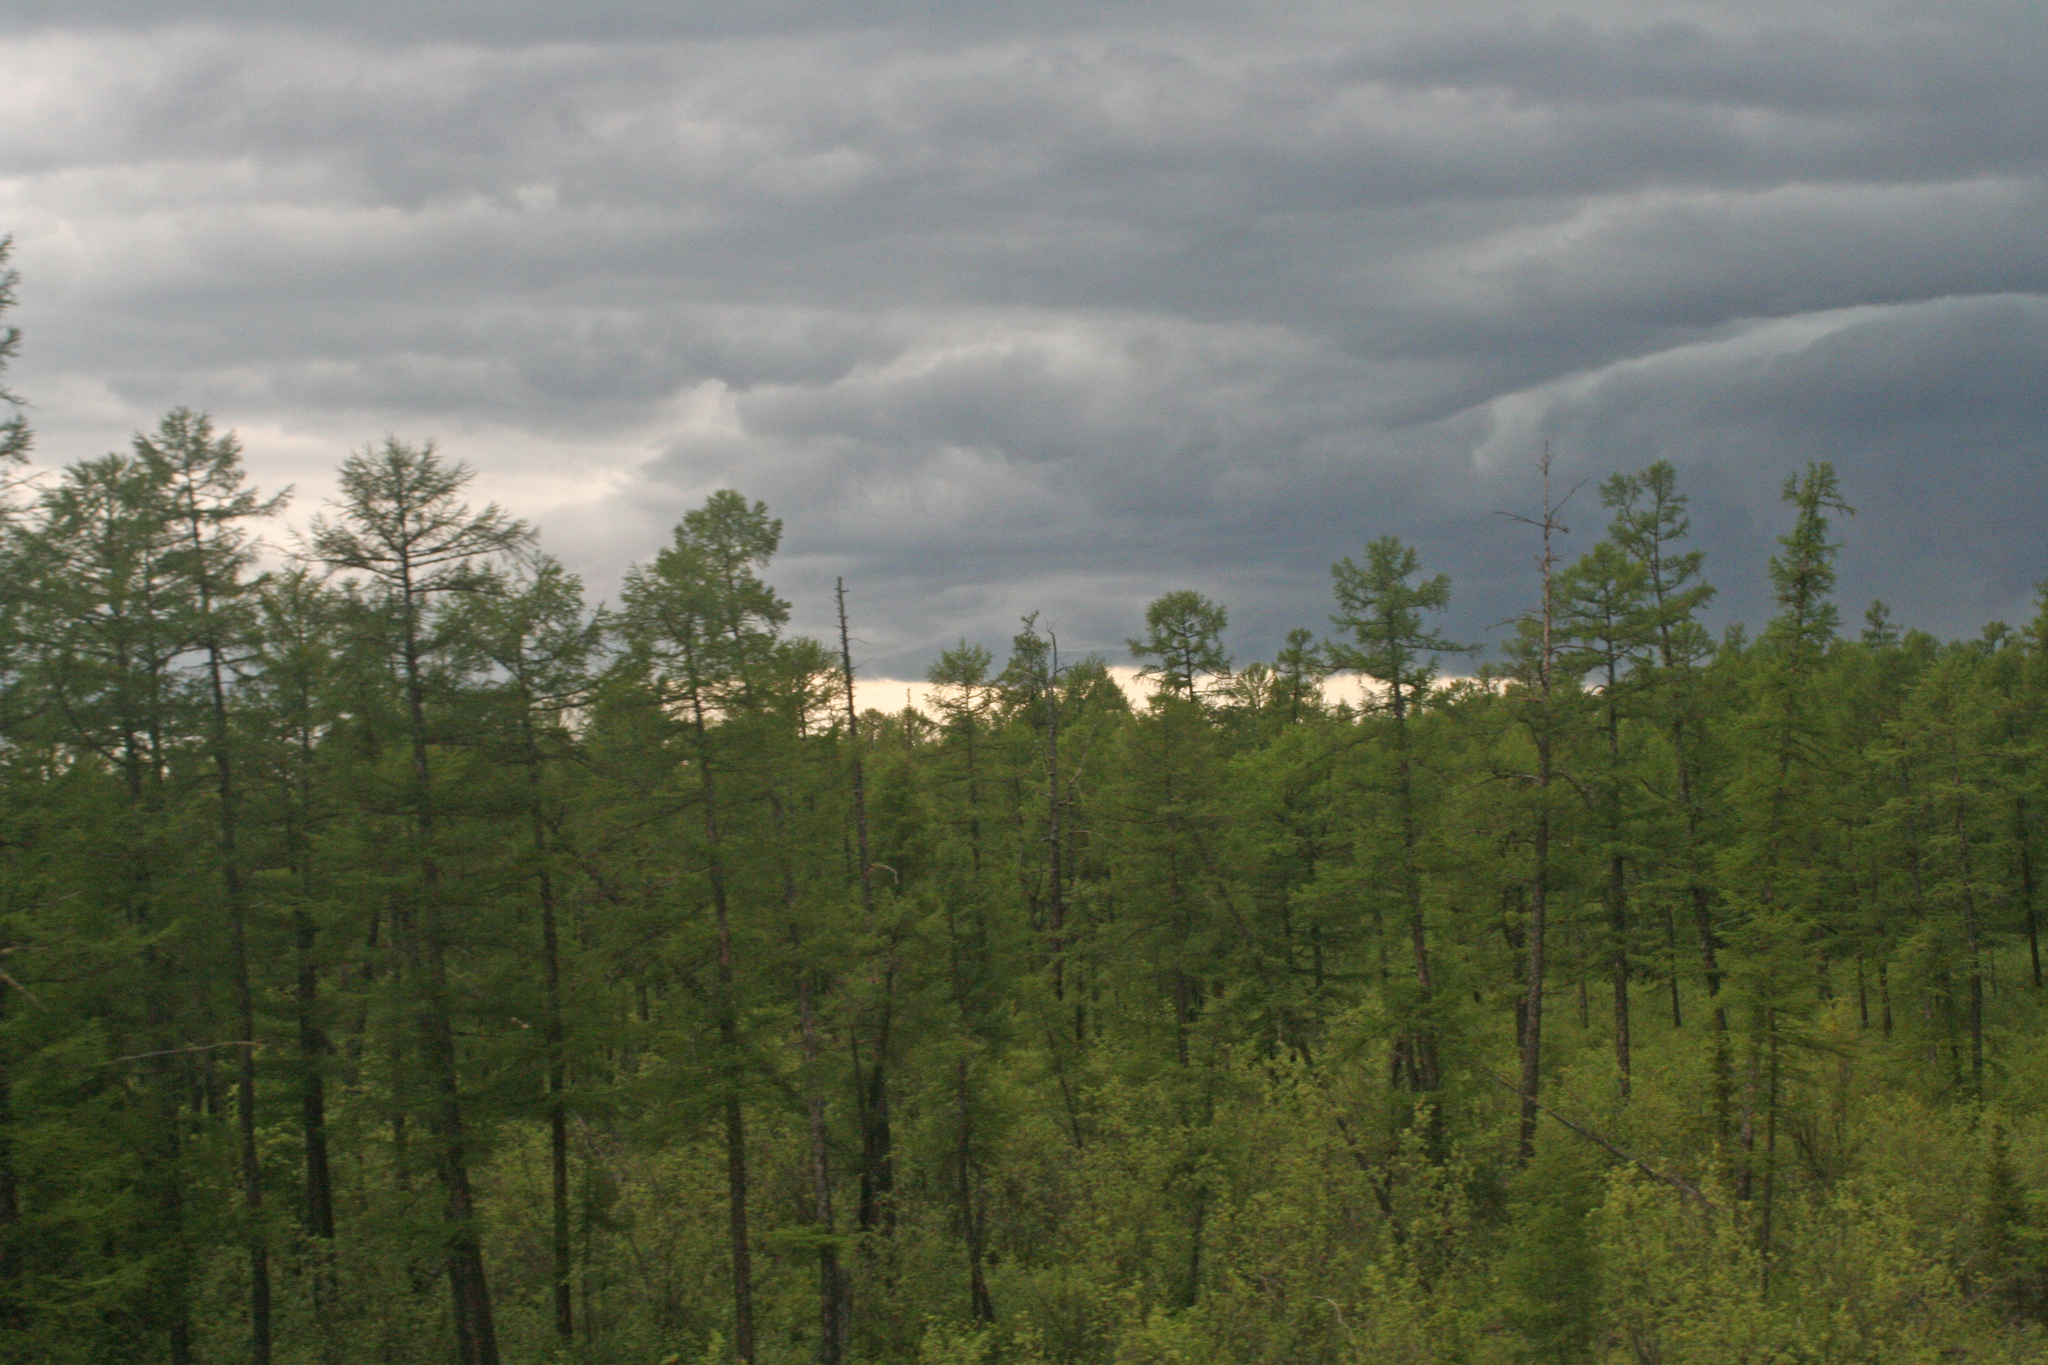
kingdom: Plantae
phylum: Tracheophyta
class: Pinopsida
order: Pinales
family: Pinaceae
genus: Larix
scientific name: Larix gmelinii
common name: Dahurian larch
